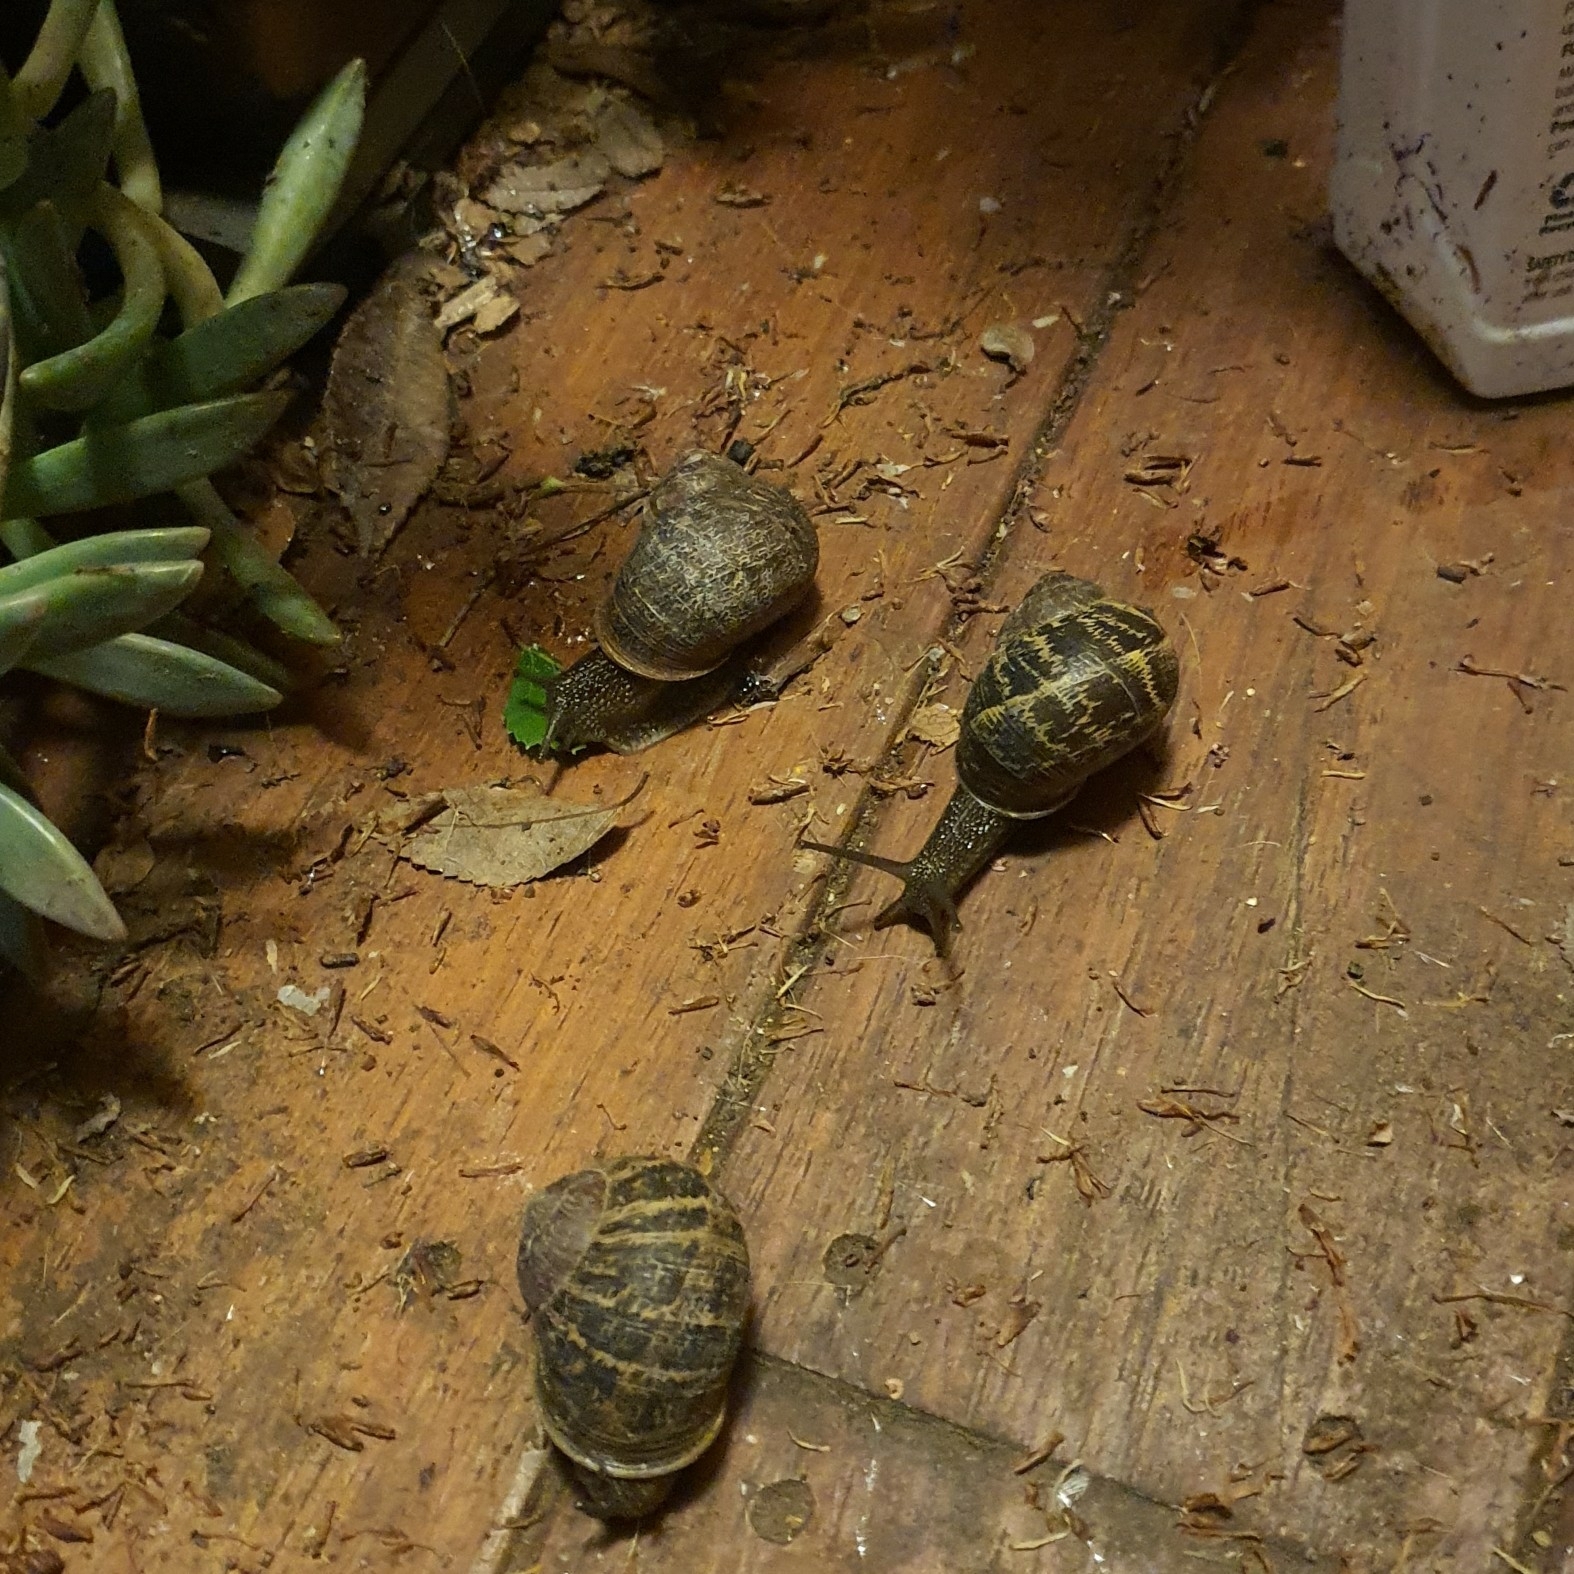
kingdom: Animalia
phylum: Mollusca
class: Gastropoda
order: Stylommatophora
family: Helicidae
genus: Cornu
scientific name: Cornu aspersum
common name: Brown garden snail
